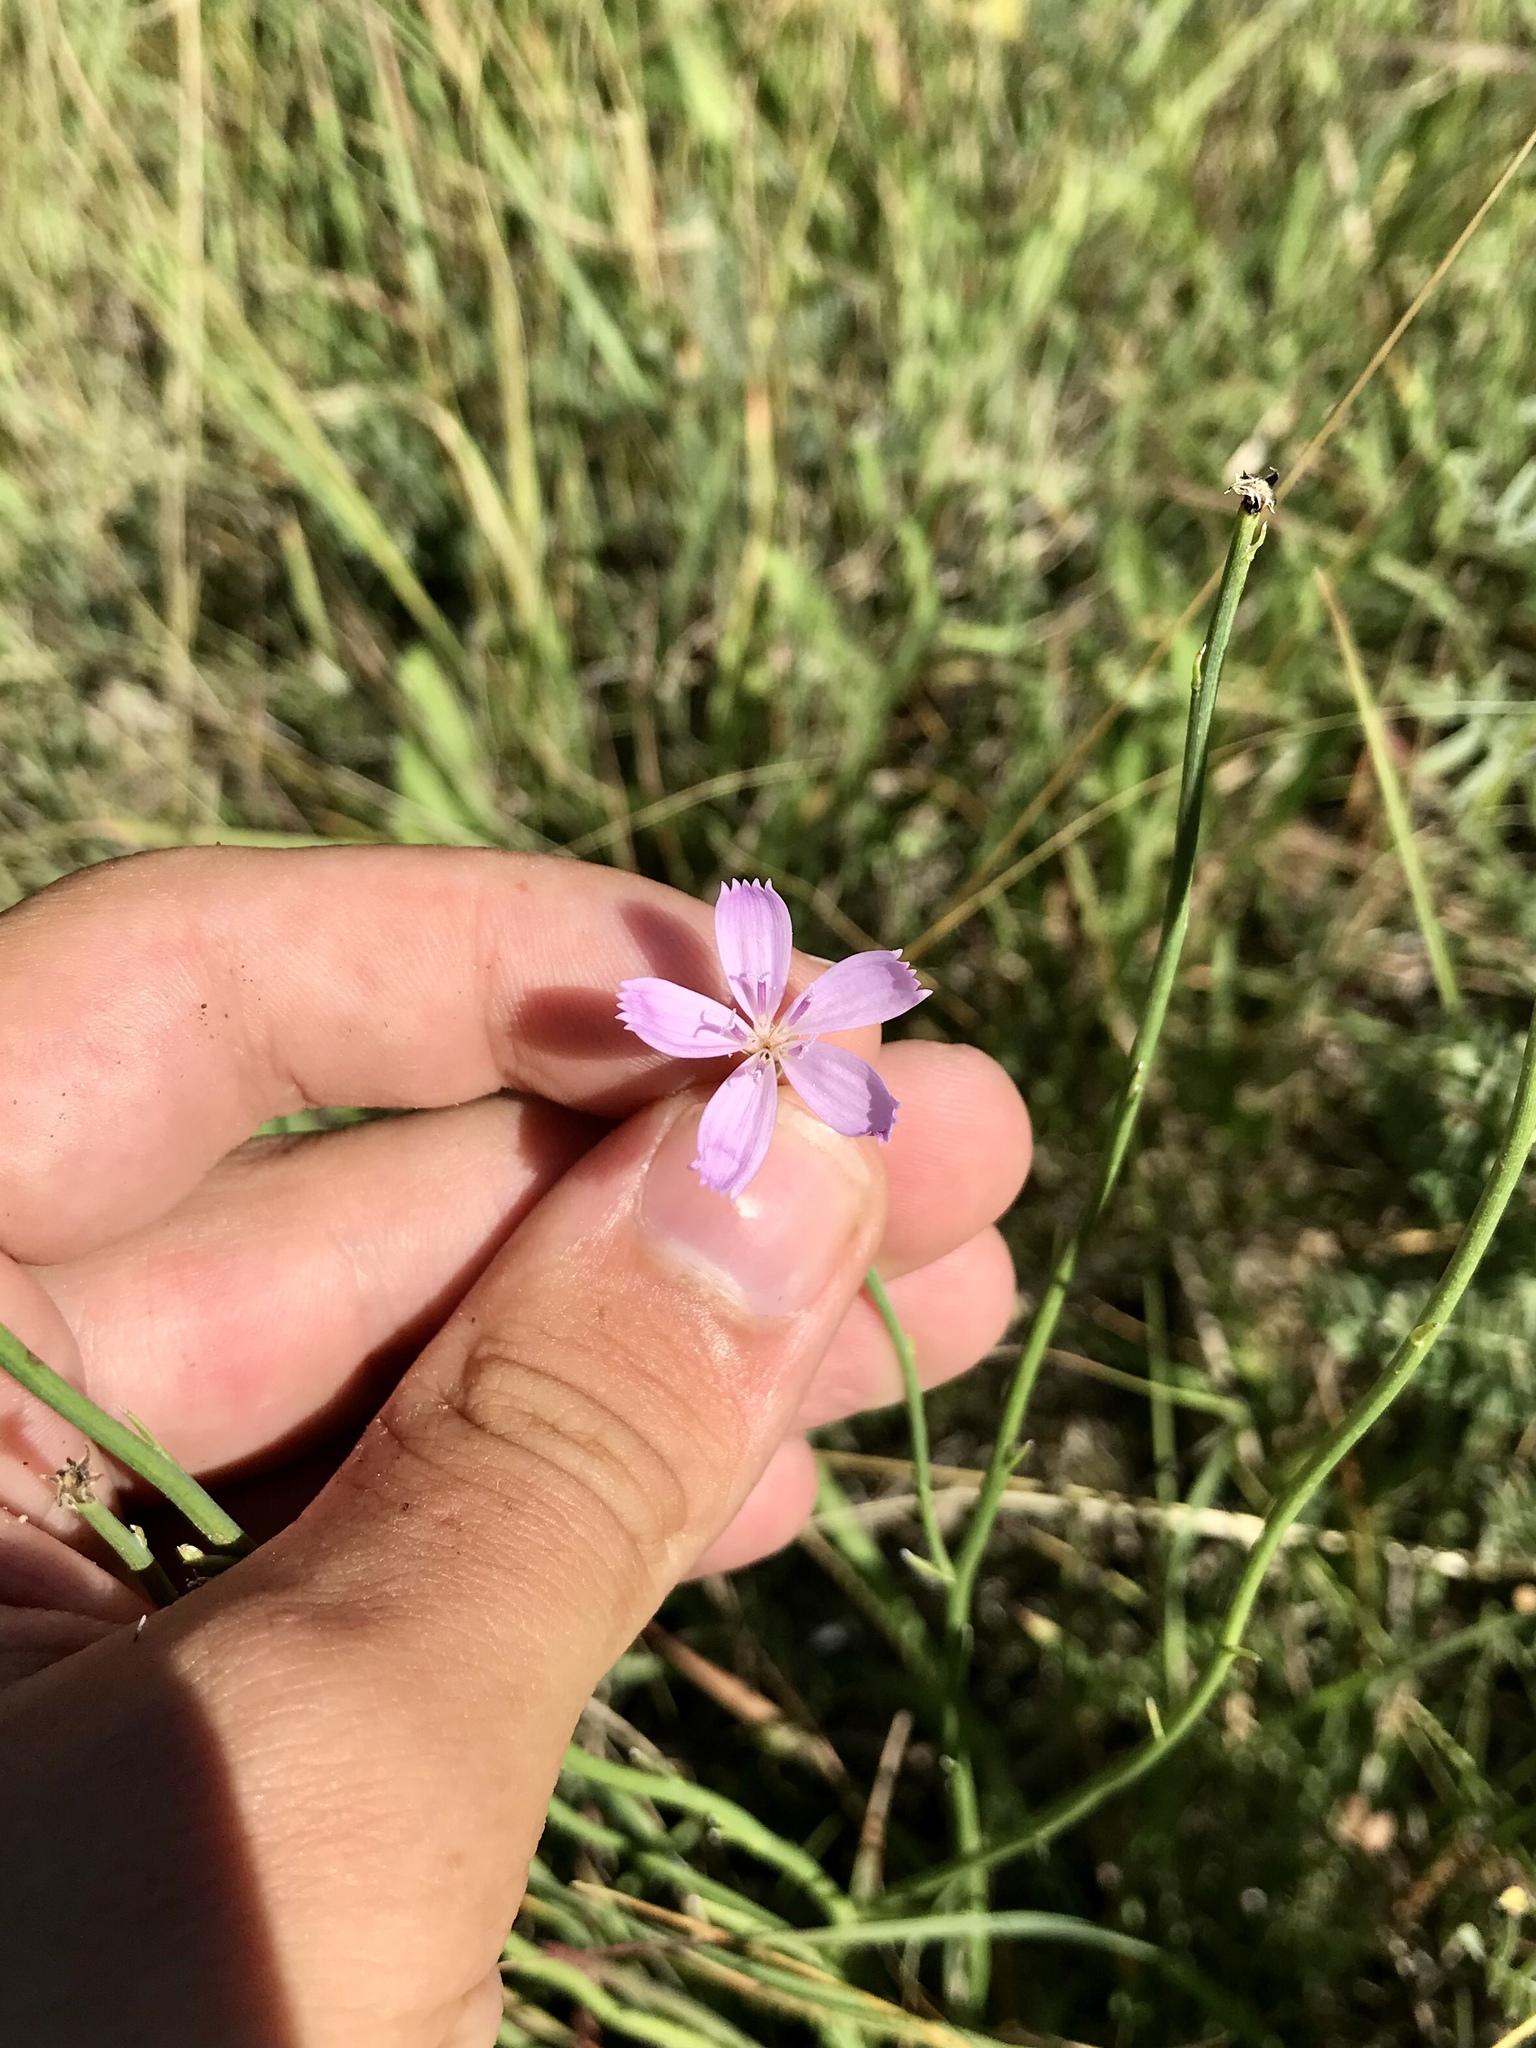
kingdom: Plantae
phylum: Tracheophyta
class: Magnoliopsida
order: Asterales
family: Asteraceae
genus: Lygodesmia
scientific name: Lygodesmia juncea
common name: Common skeletonweed
